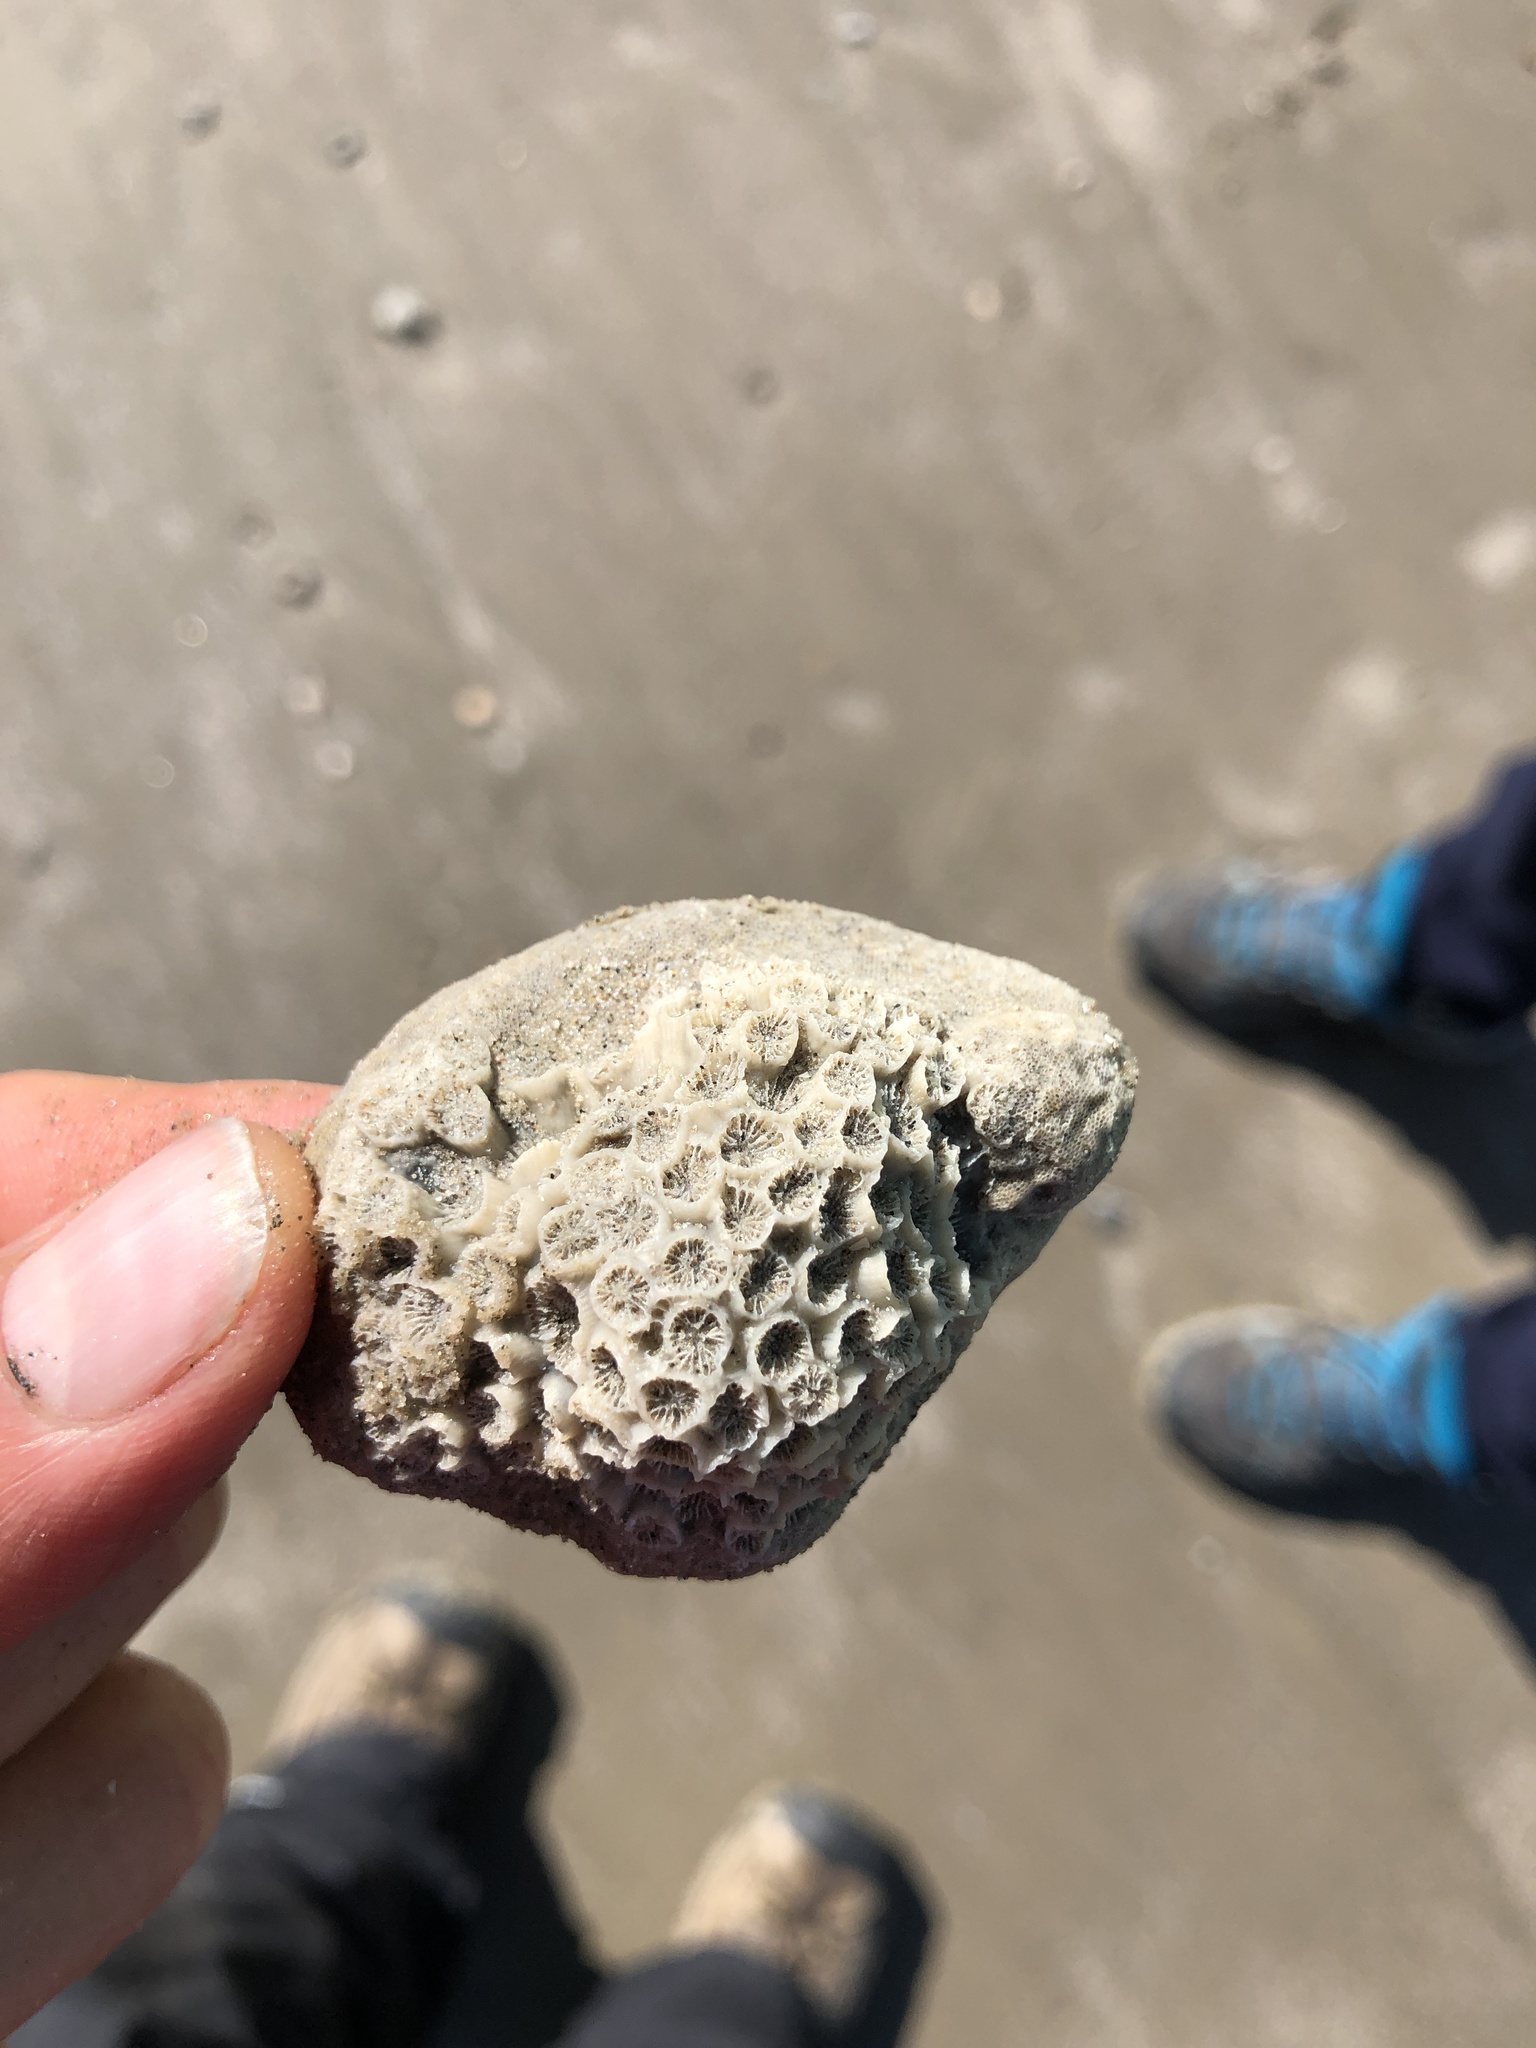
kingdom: Animalia
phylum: Cnidaria
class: Anthozoa
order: Scleractinia
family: Astrangiidae
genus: Astrangia
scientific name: Astrangia poculata
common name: Northern star coral
